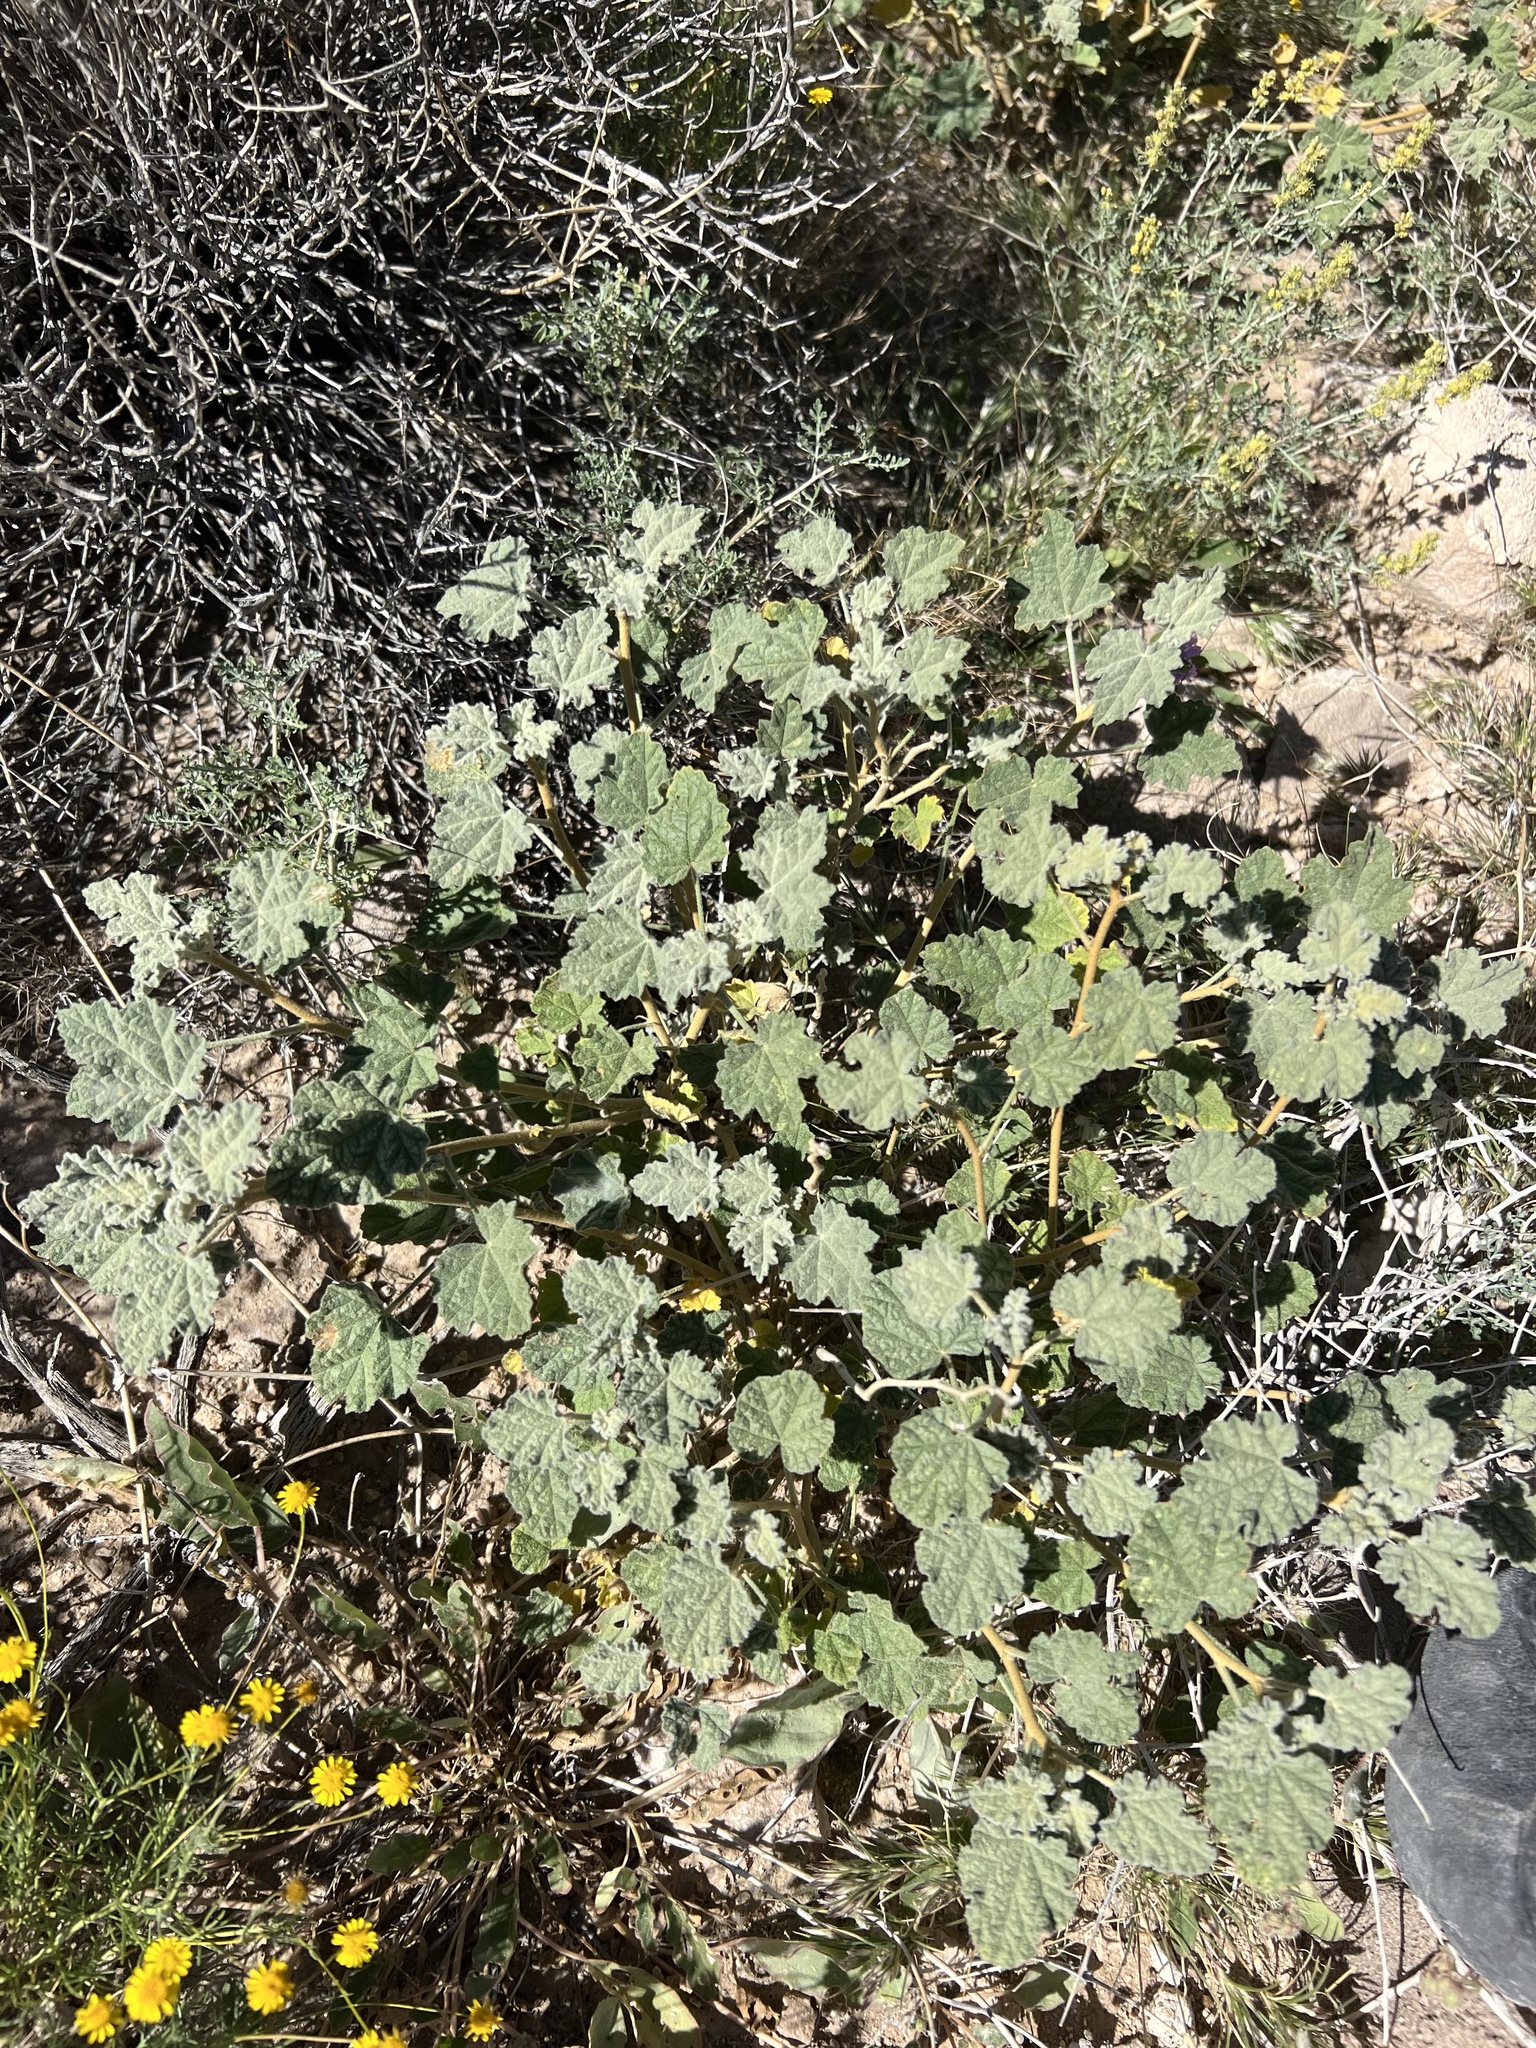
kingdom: Plantae
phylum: Tracheophyta
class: Magnoliopsida
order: Malvales
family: Malvaceae
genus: Sphaeralcea
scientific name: Sphaeralcea ambigua
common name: Apricot globe-mallow
